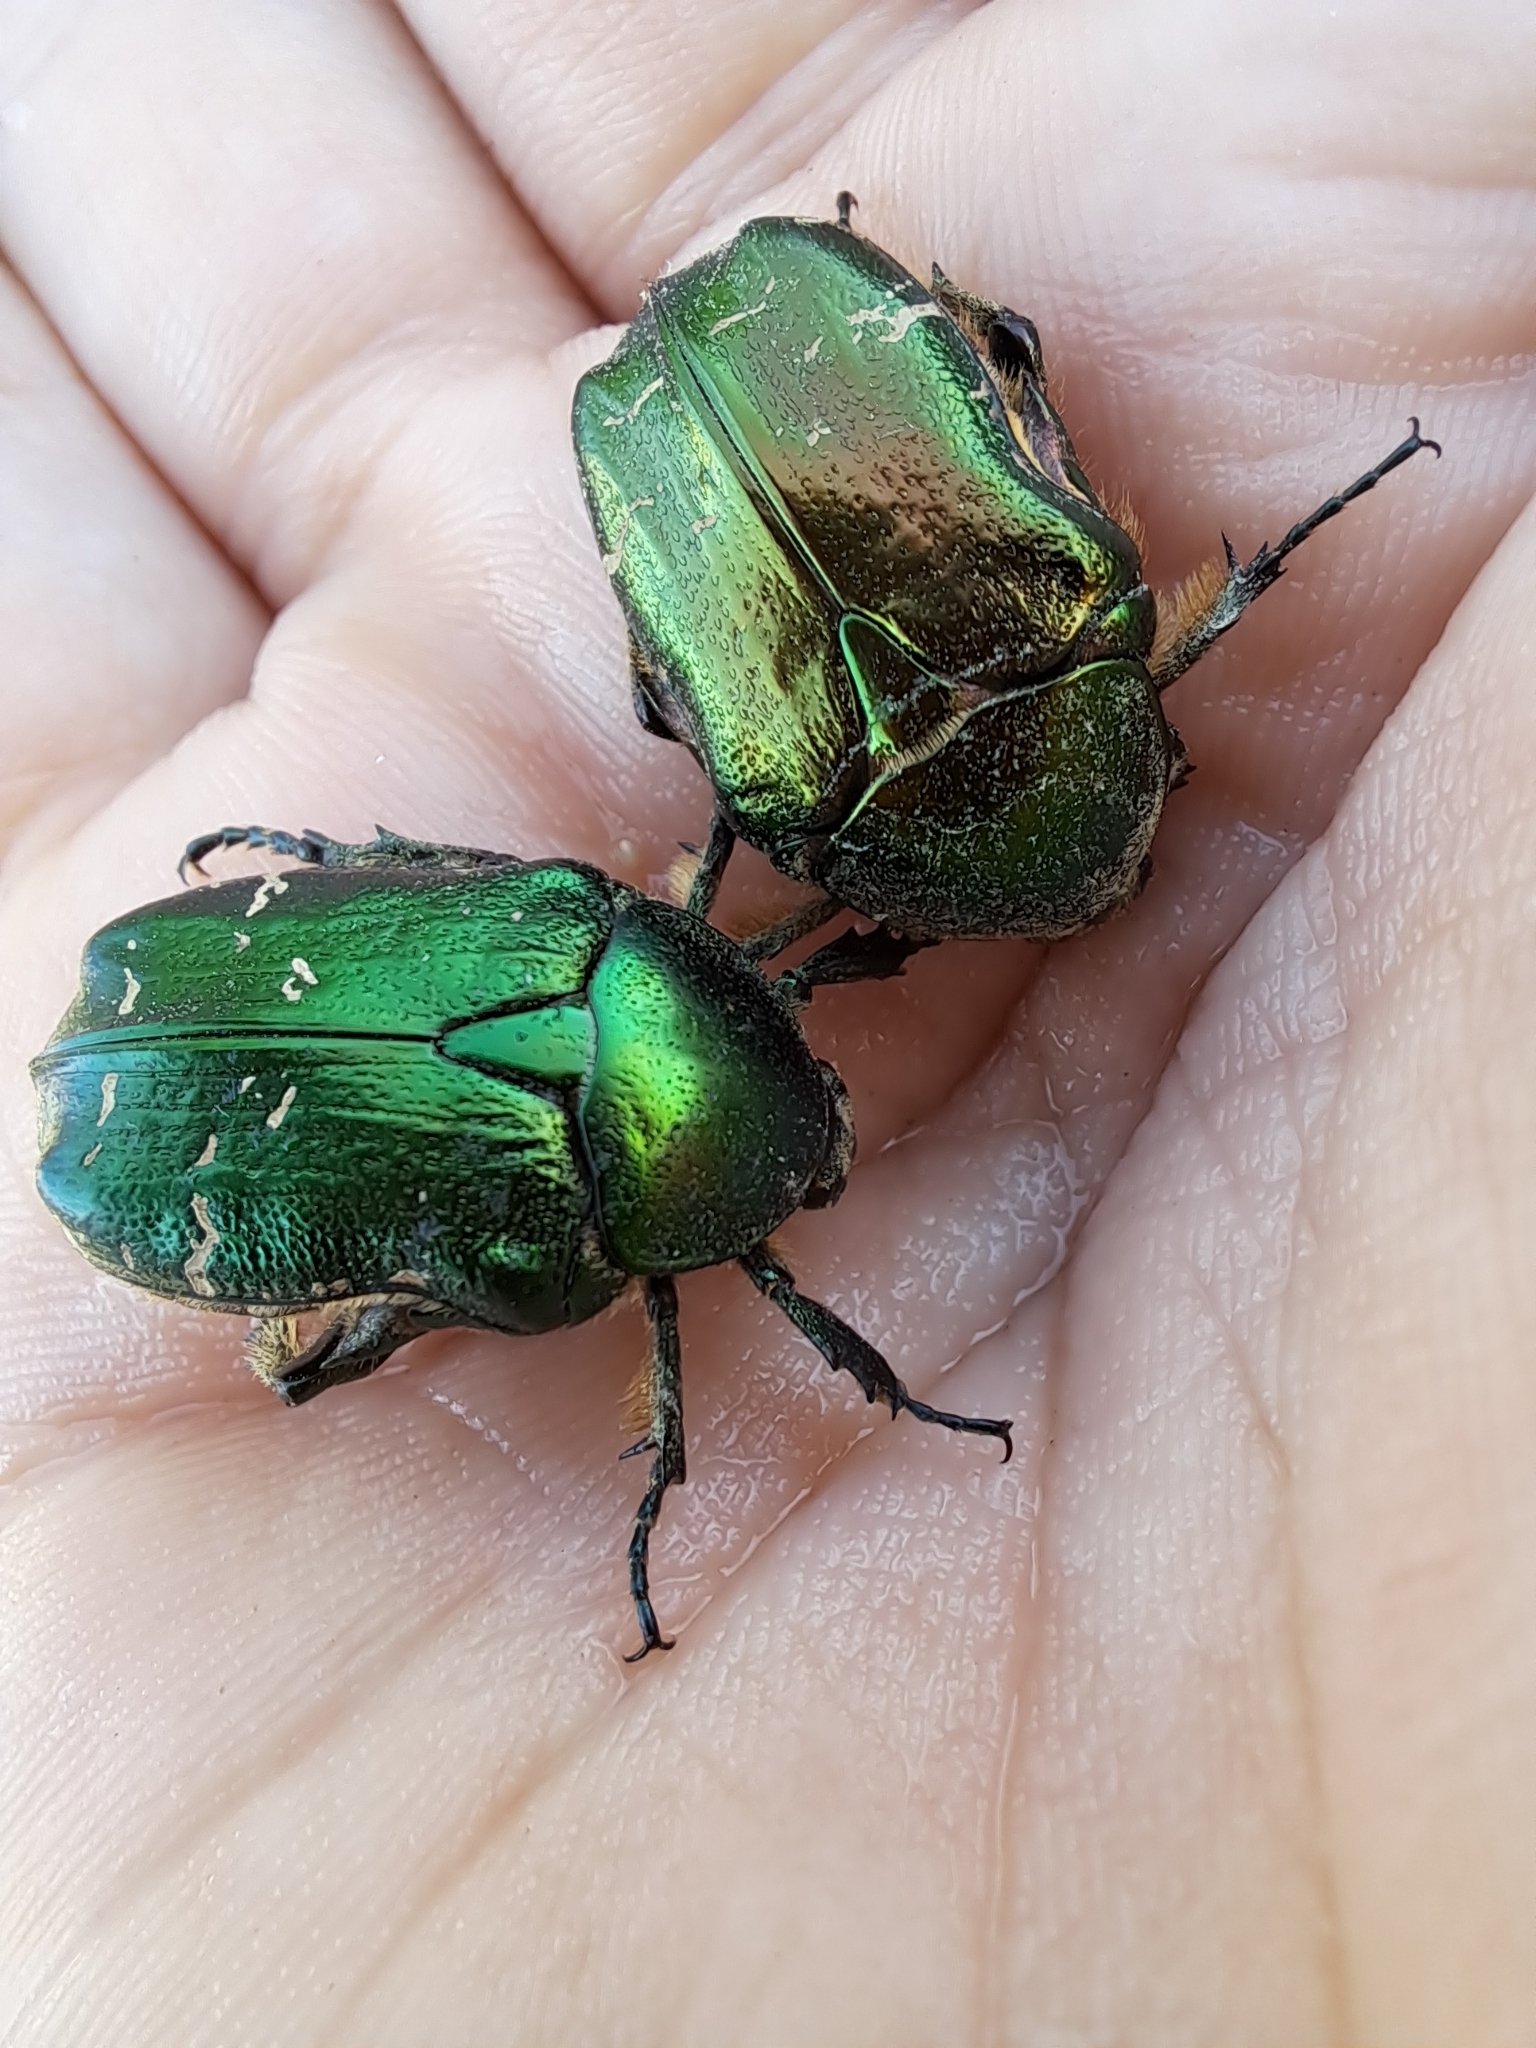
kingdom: Animalia
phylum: Arthropoda
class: Insecta
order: Coleoptera
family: Scarabaeidae
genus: Cetonia
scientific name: Cetonia aurata
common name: Rose chafer
